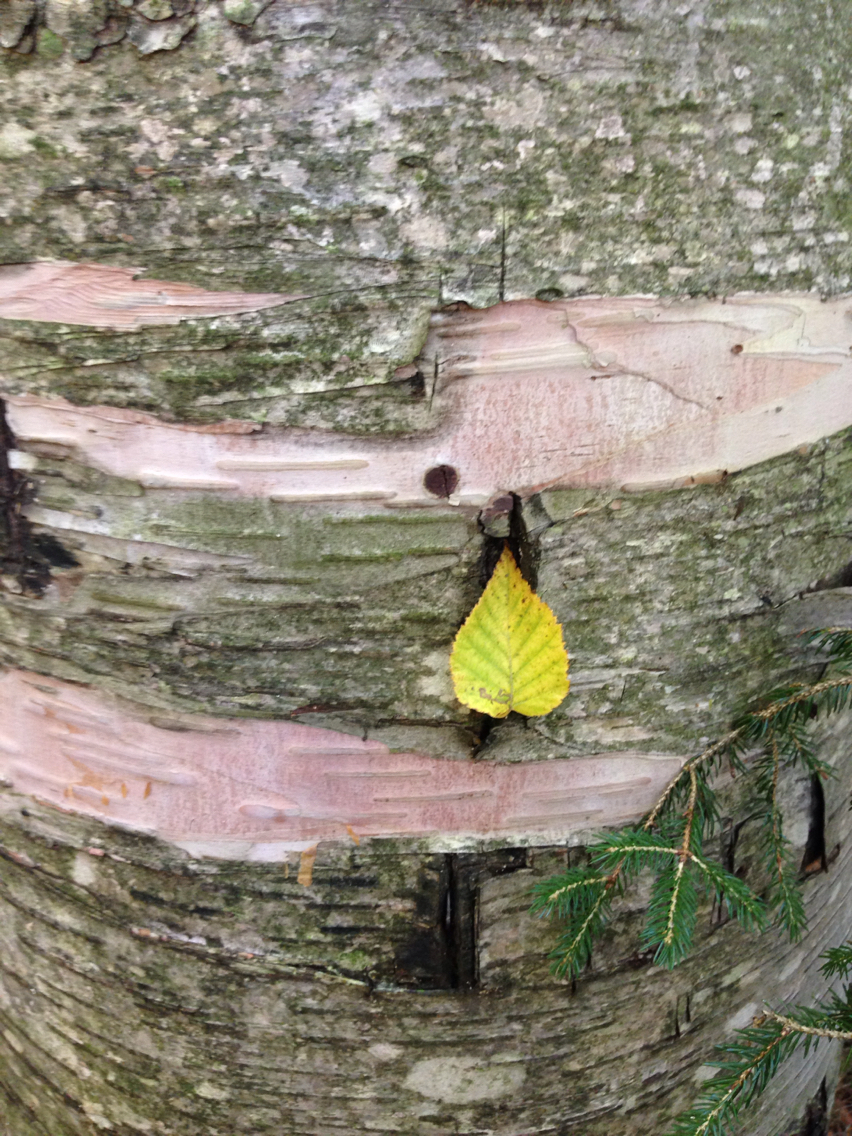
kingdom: Plantae
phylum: Tracheophyta
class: Magnoliopsida
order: Fagales
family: Betulaceae
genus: Betula
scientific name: Betula cordifolia
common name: Mountain white birch
